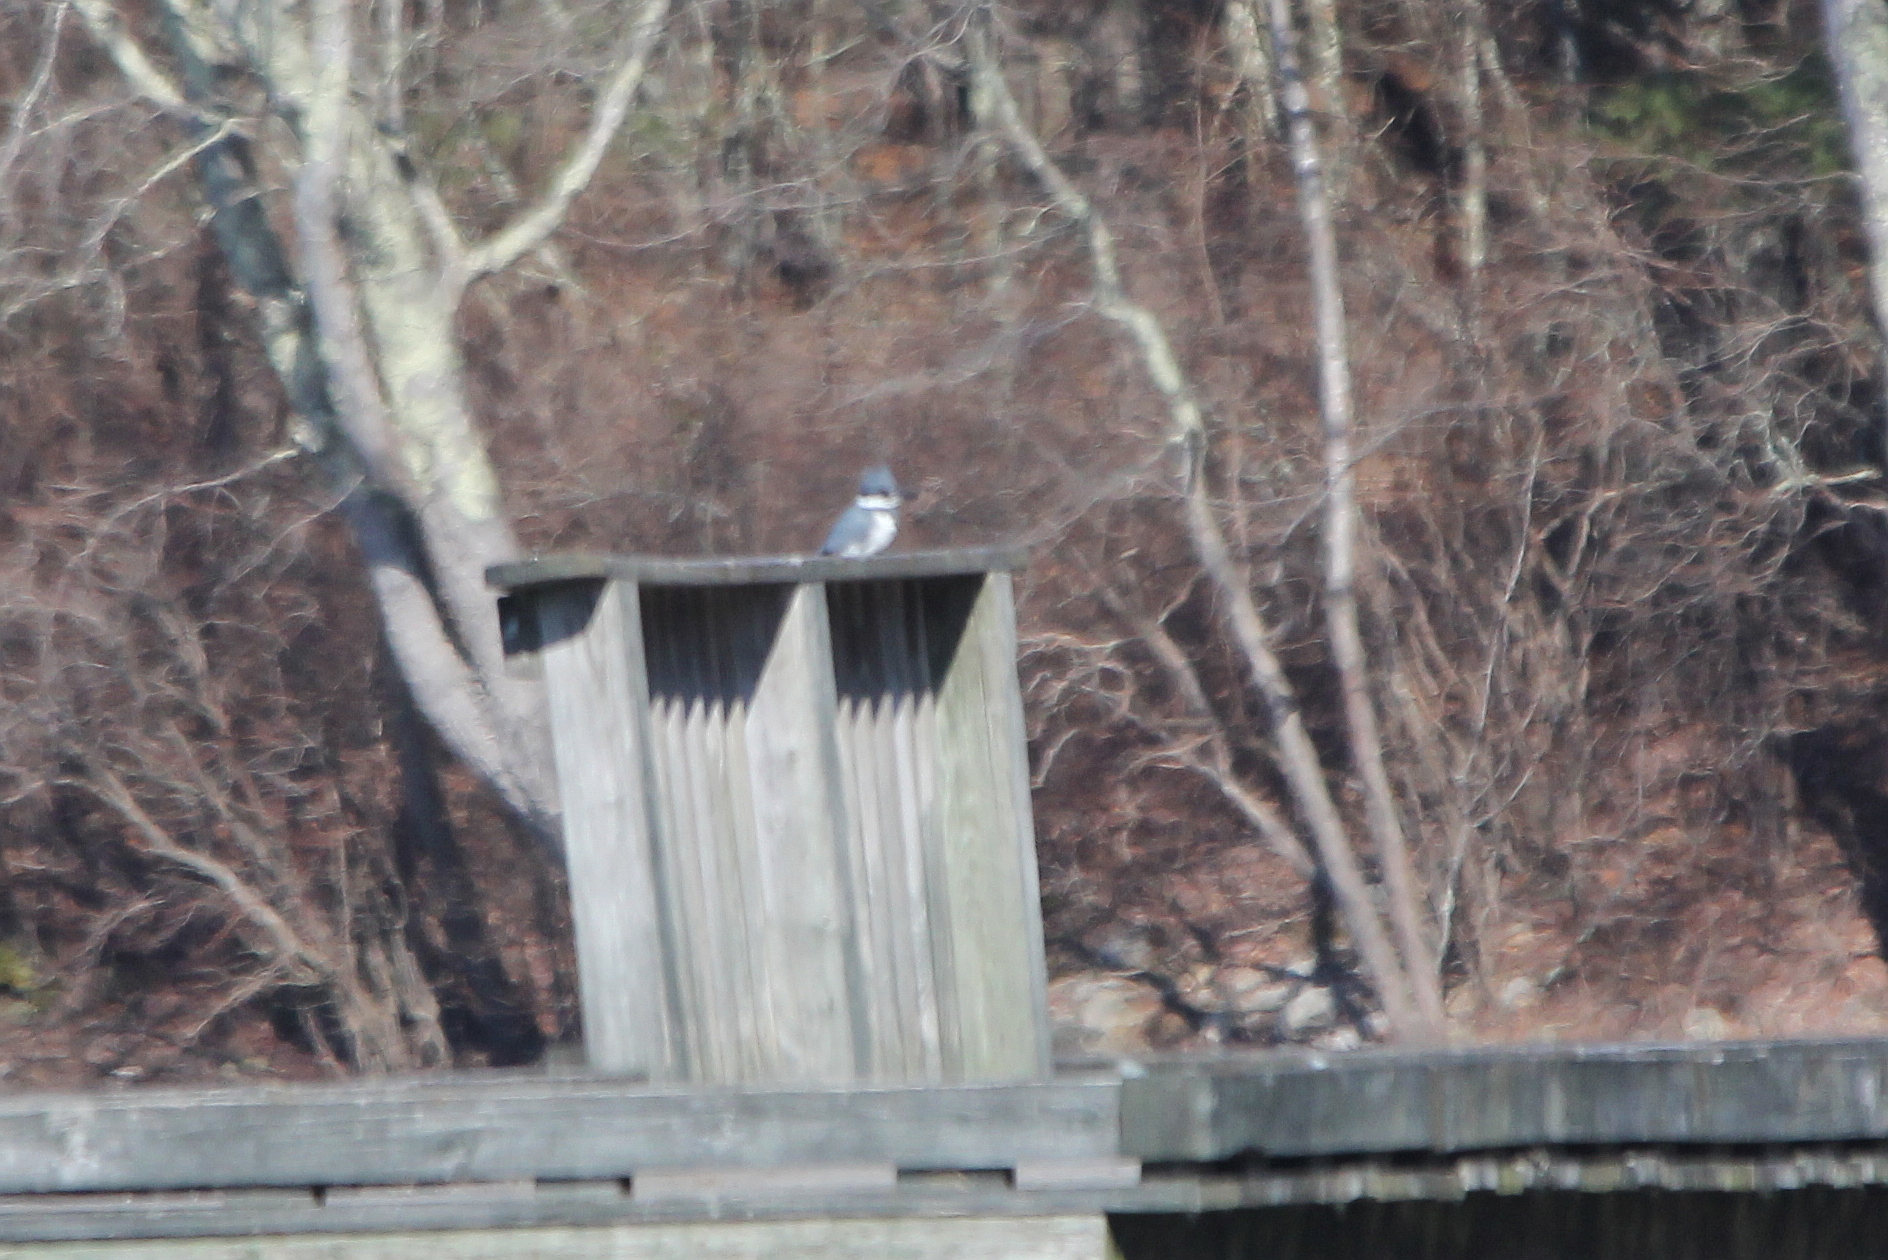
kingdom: Animalia
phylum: Chordata
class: Aves
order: Coraciiformes
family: Alcedinidae
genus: Megaceryle
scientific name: Megaceryle alcyon
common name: Belted kingfisher
